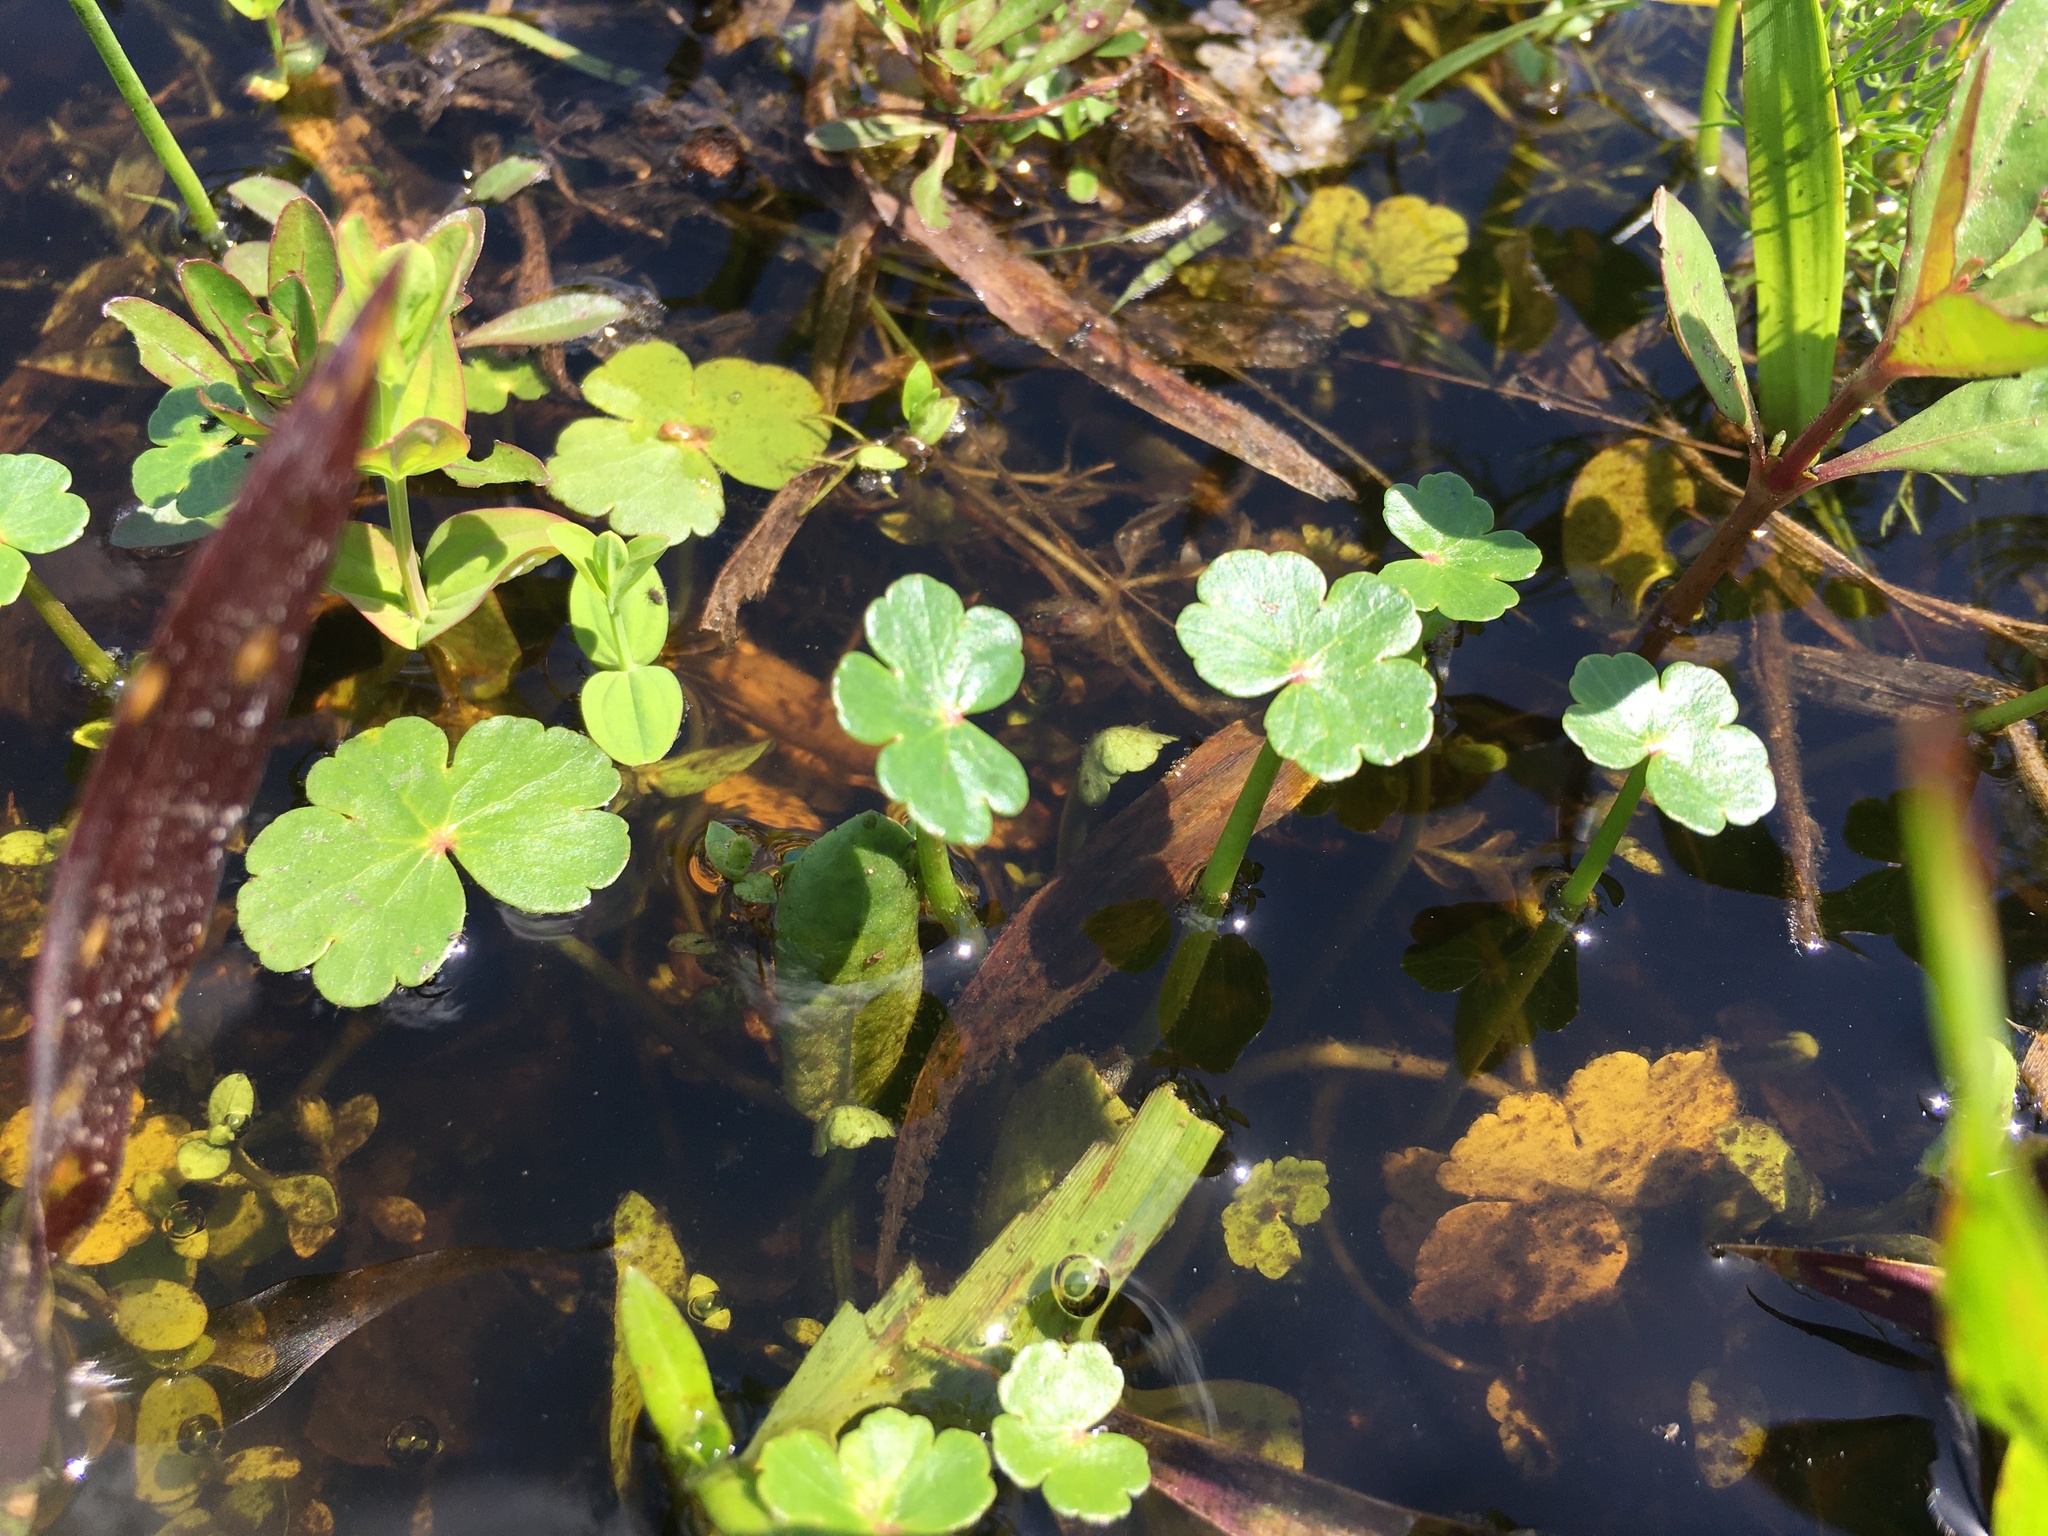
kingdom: Plantae
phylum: Tracheophyta
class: Magnoliopsida
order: Apiales
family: Araliaceae
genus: Hydrocotyle
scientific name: Hydrocotyle ranunculoides
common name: Floating pennywort
